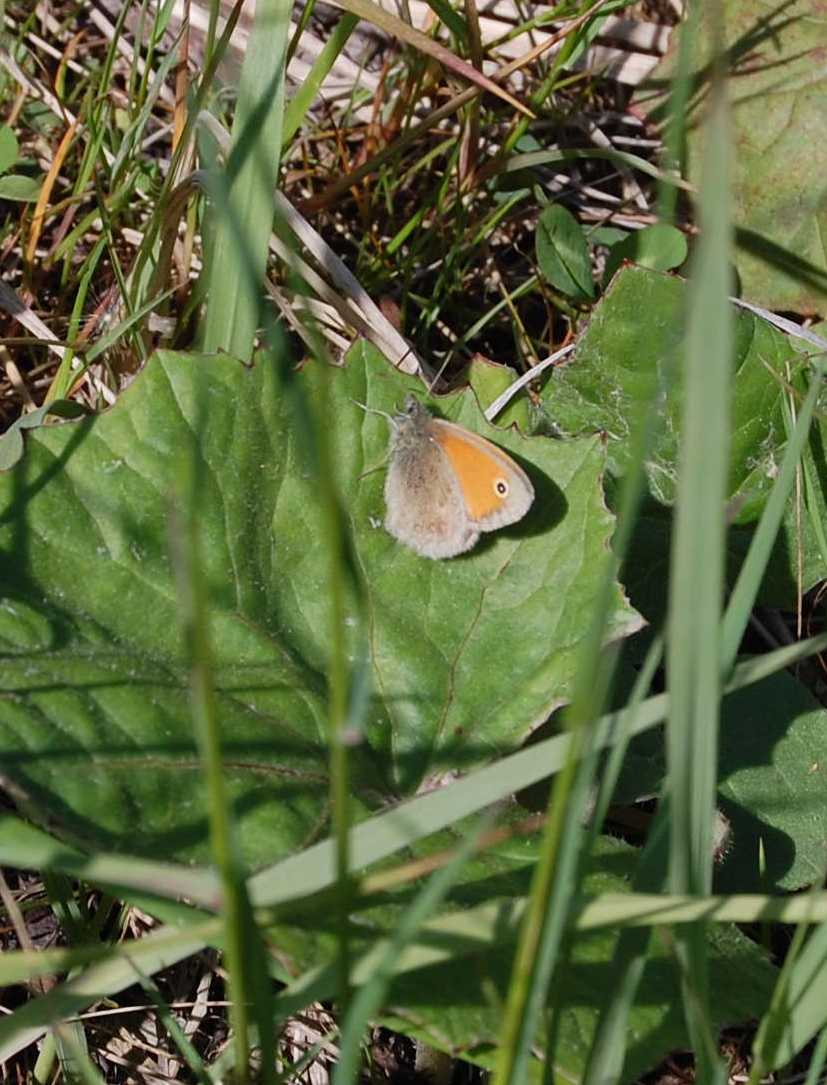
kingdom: Animalia
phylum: Arthropoda
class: Insecta
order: Lepidoptera
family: Nymphalidae
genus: Coenonympha
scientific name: Coenonympha pamphilus
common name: Small heath
